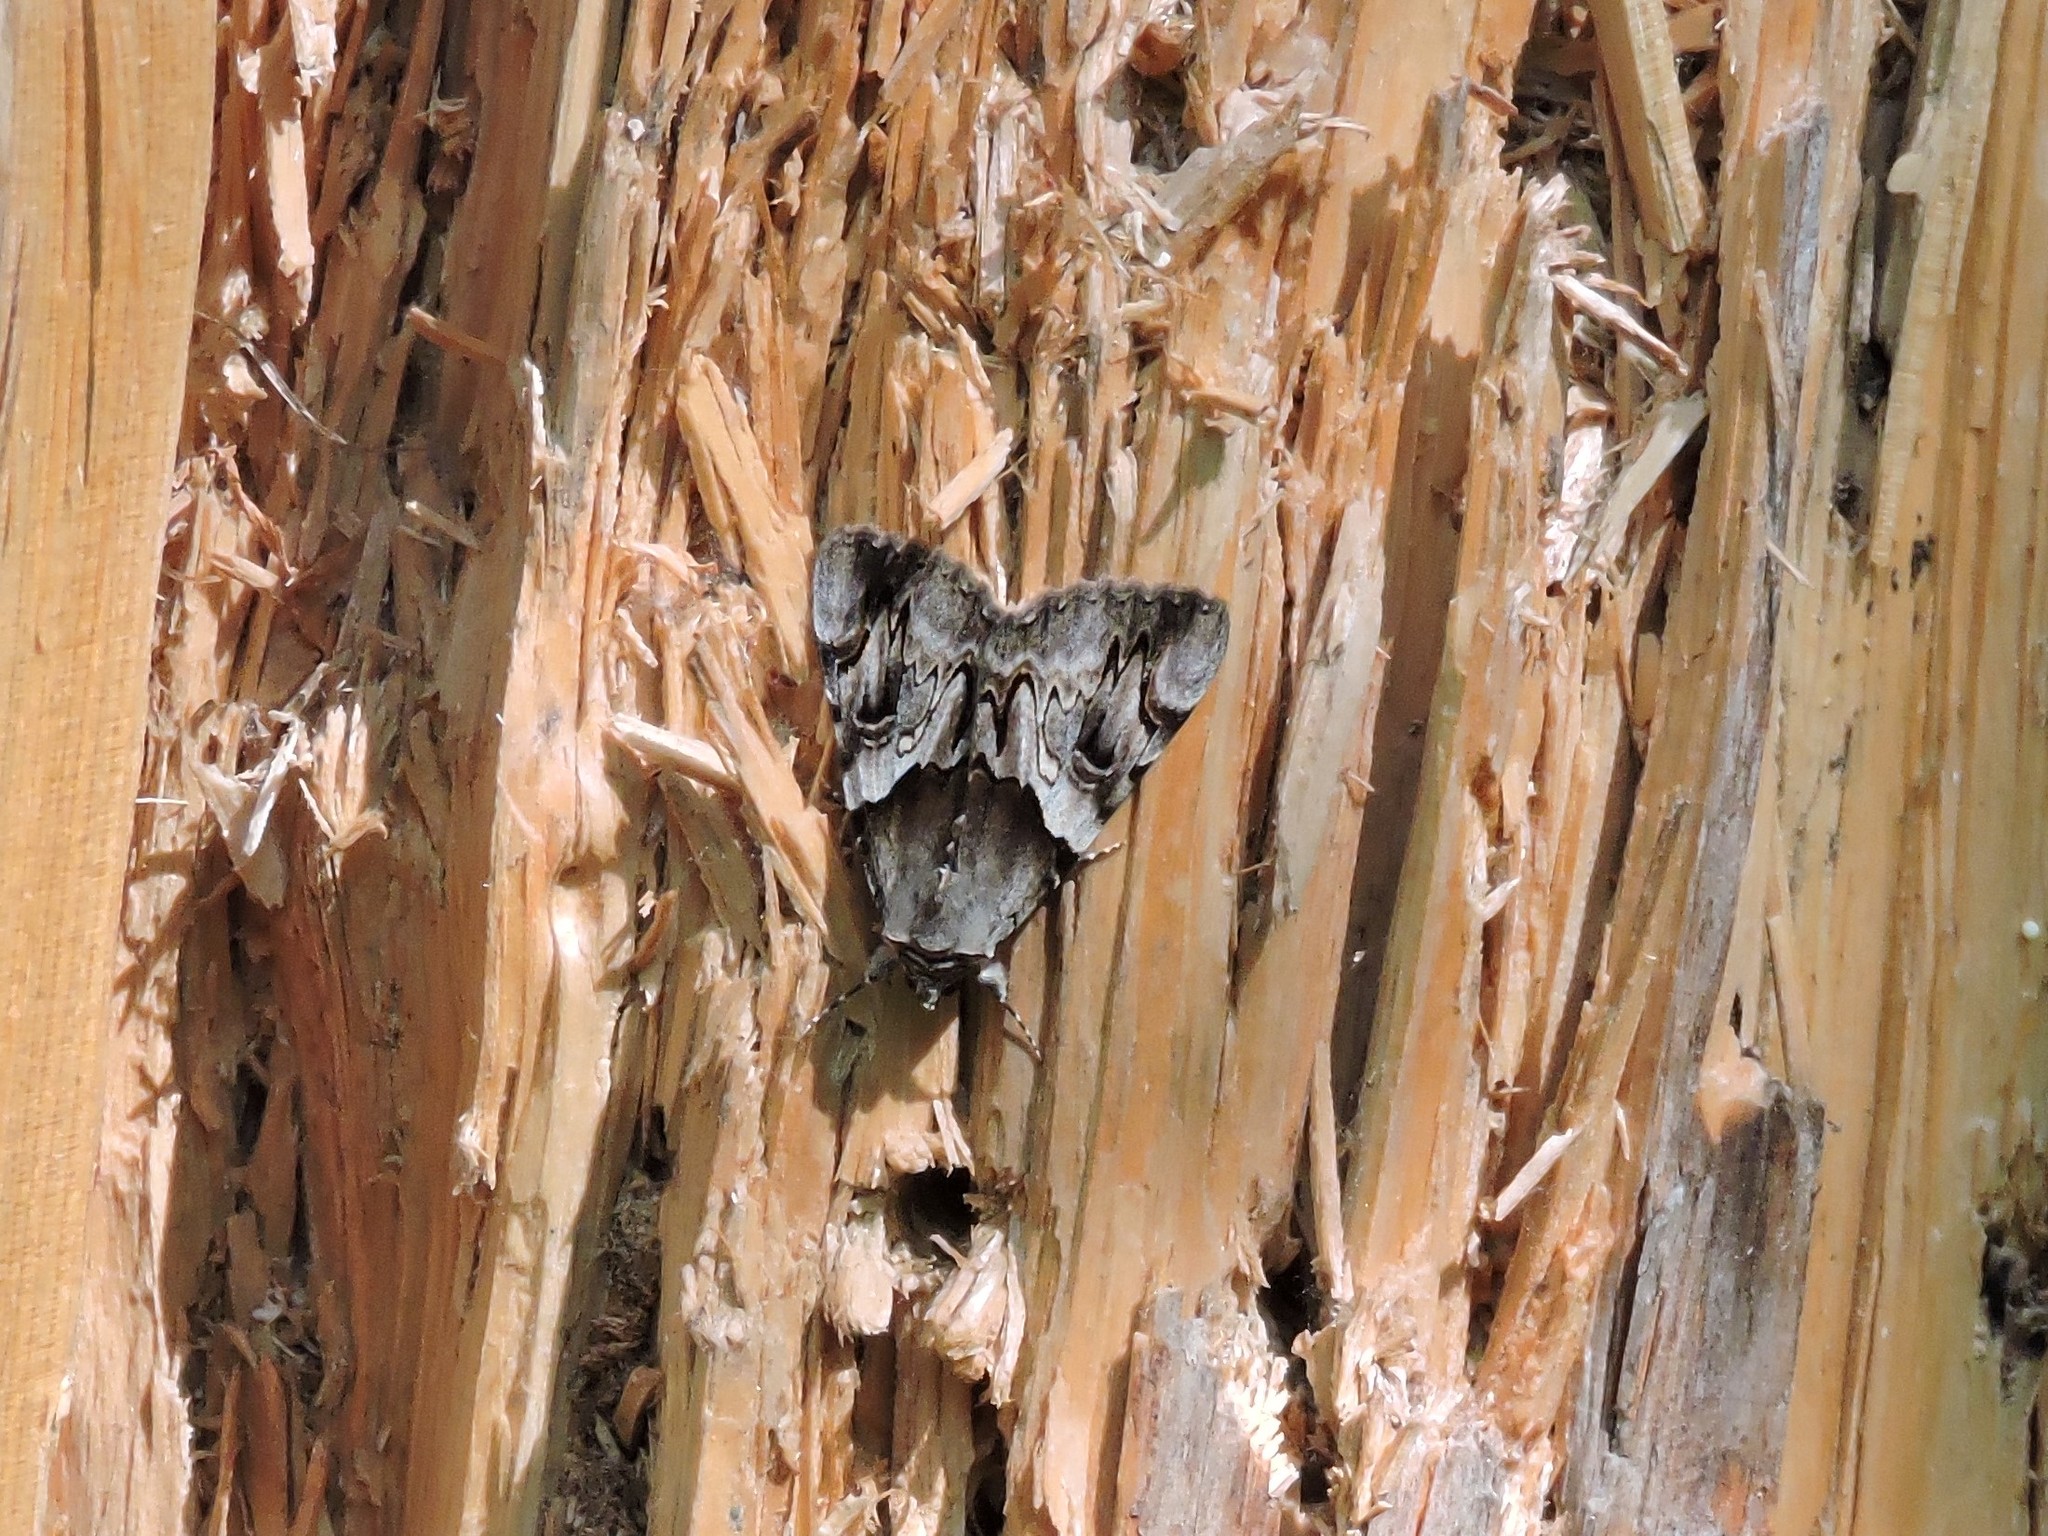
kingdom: Animalia
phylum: Arthropoda
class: Insecta
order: Lepidoptera
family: Erebidae
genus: Catocala
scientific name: Catocala fulminea
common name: Yellow bands underwing
